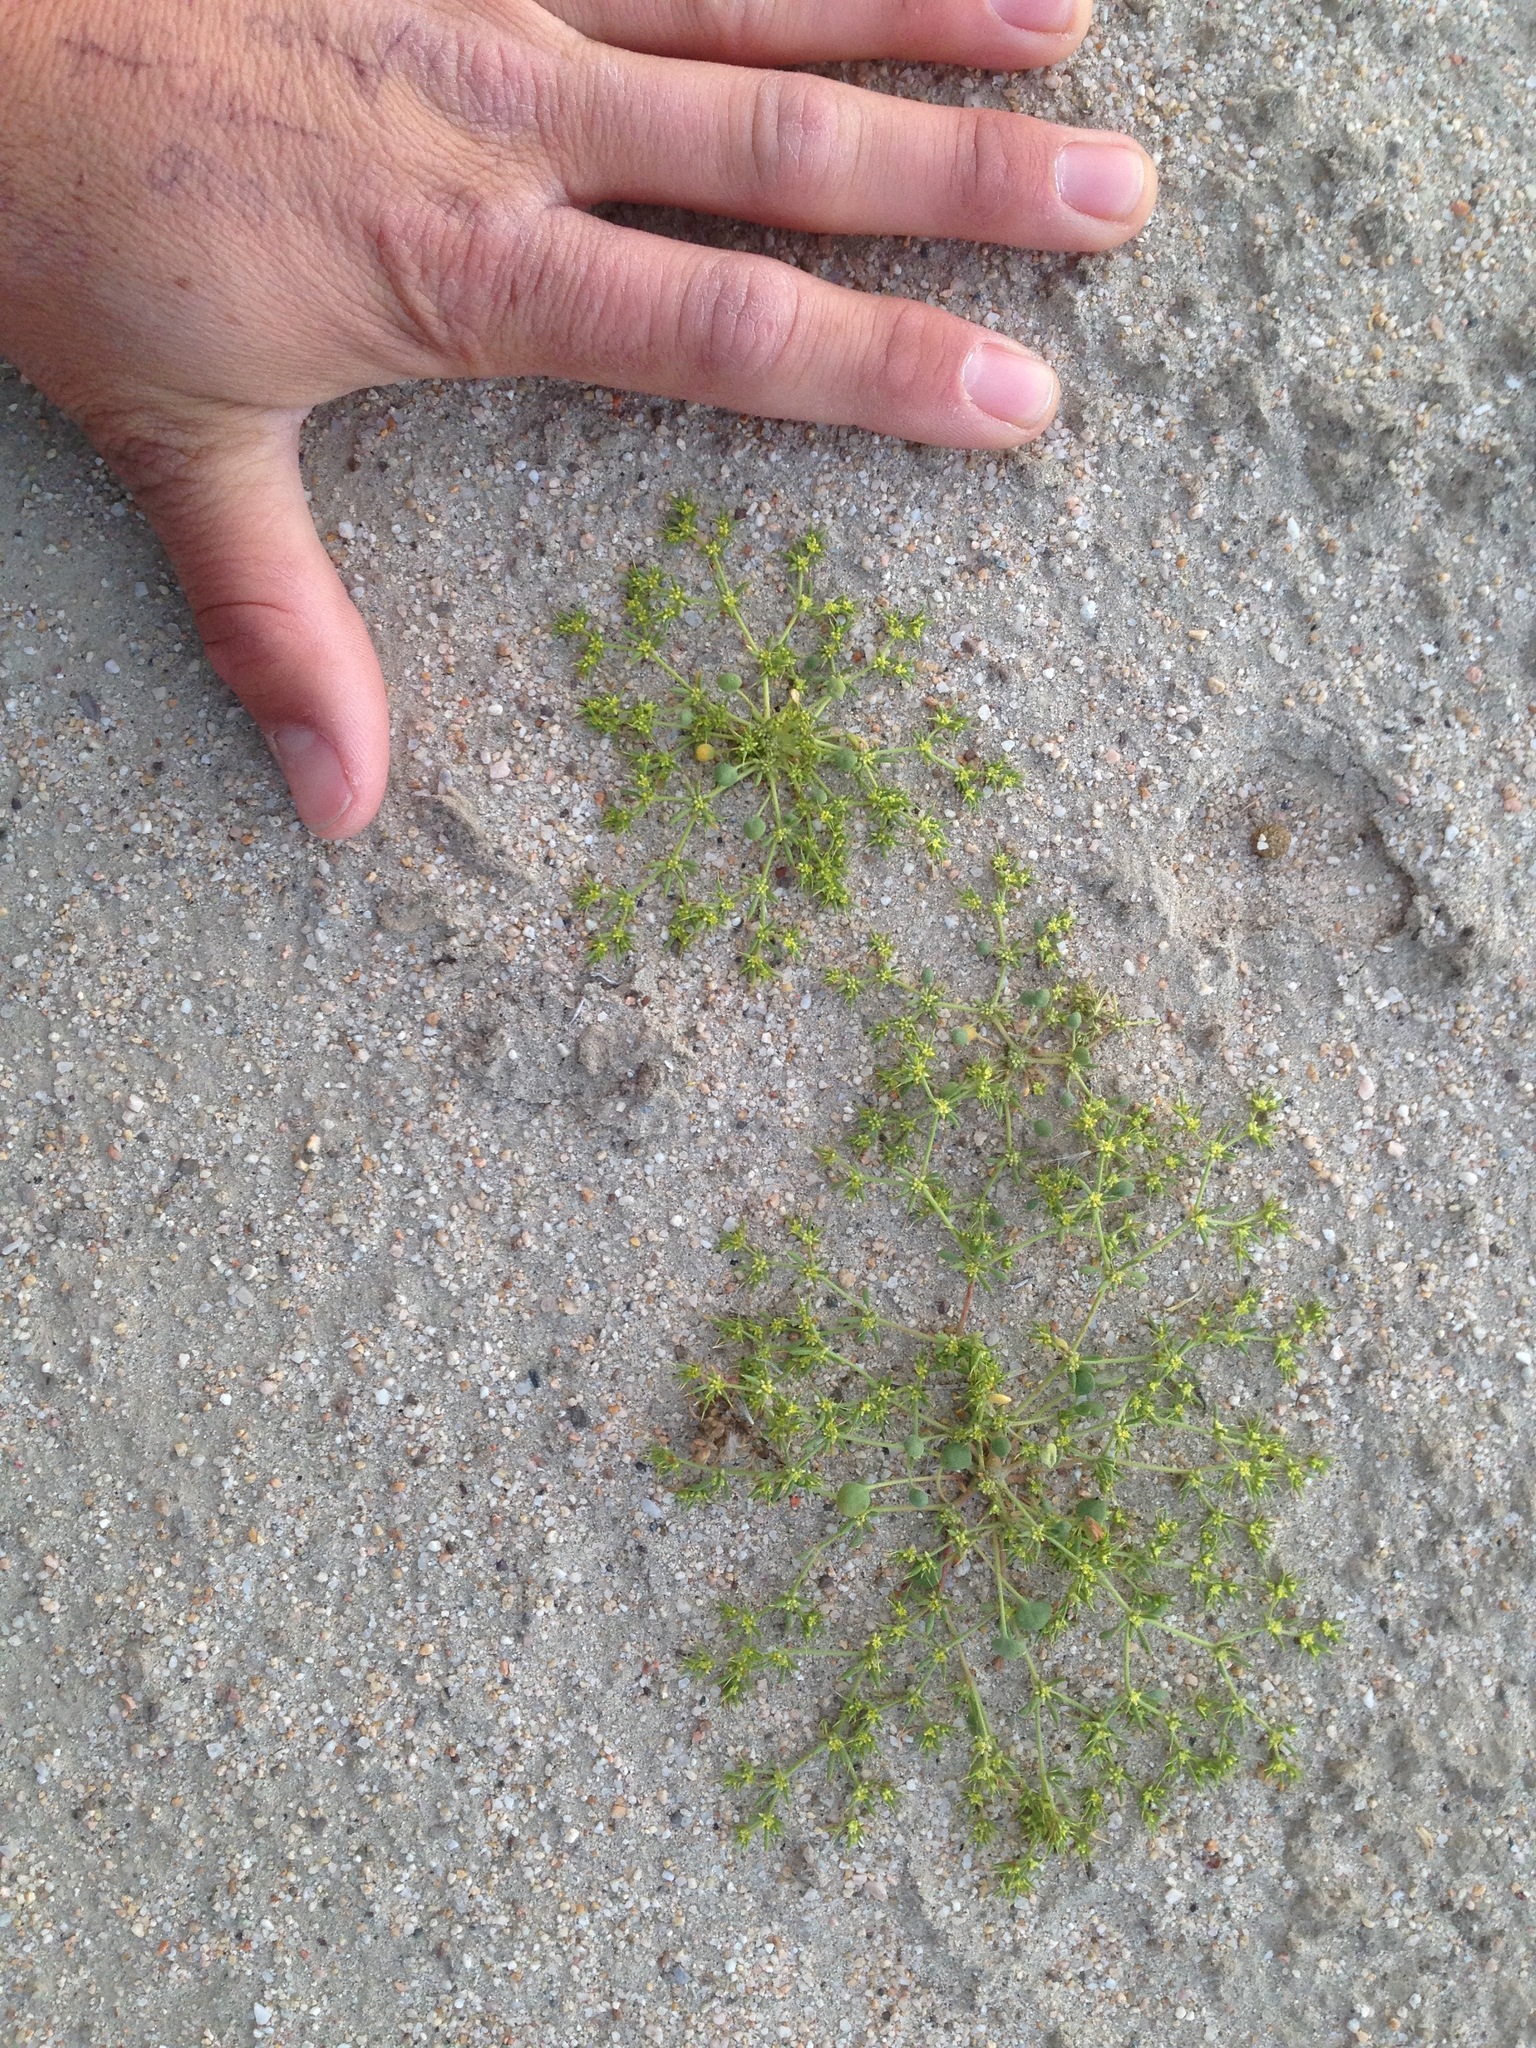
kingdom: Plantae
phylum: Tracheophyta
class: Magnoliopsida
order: Caryophyllales
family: Polygonaceae
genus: Goodmania
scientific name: Goodmania luteola
